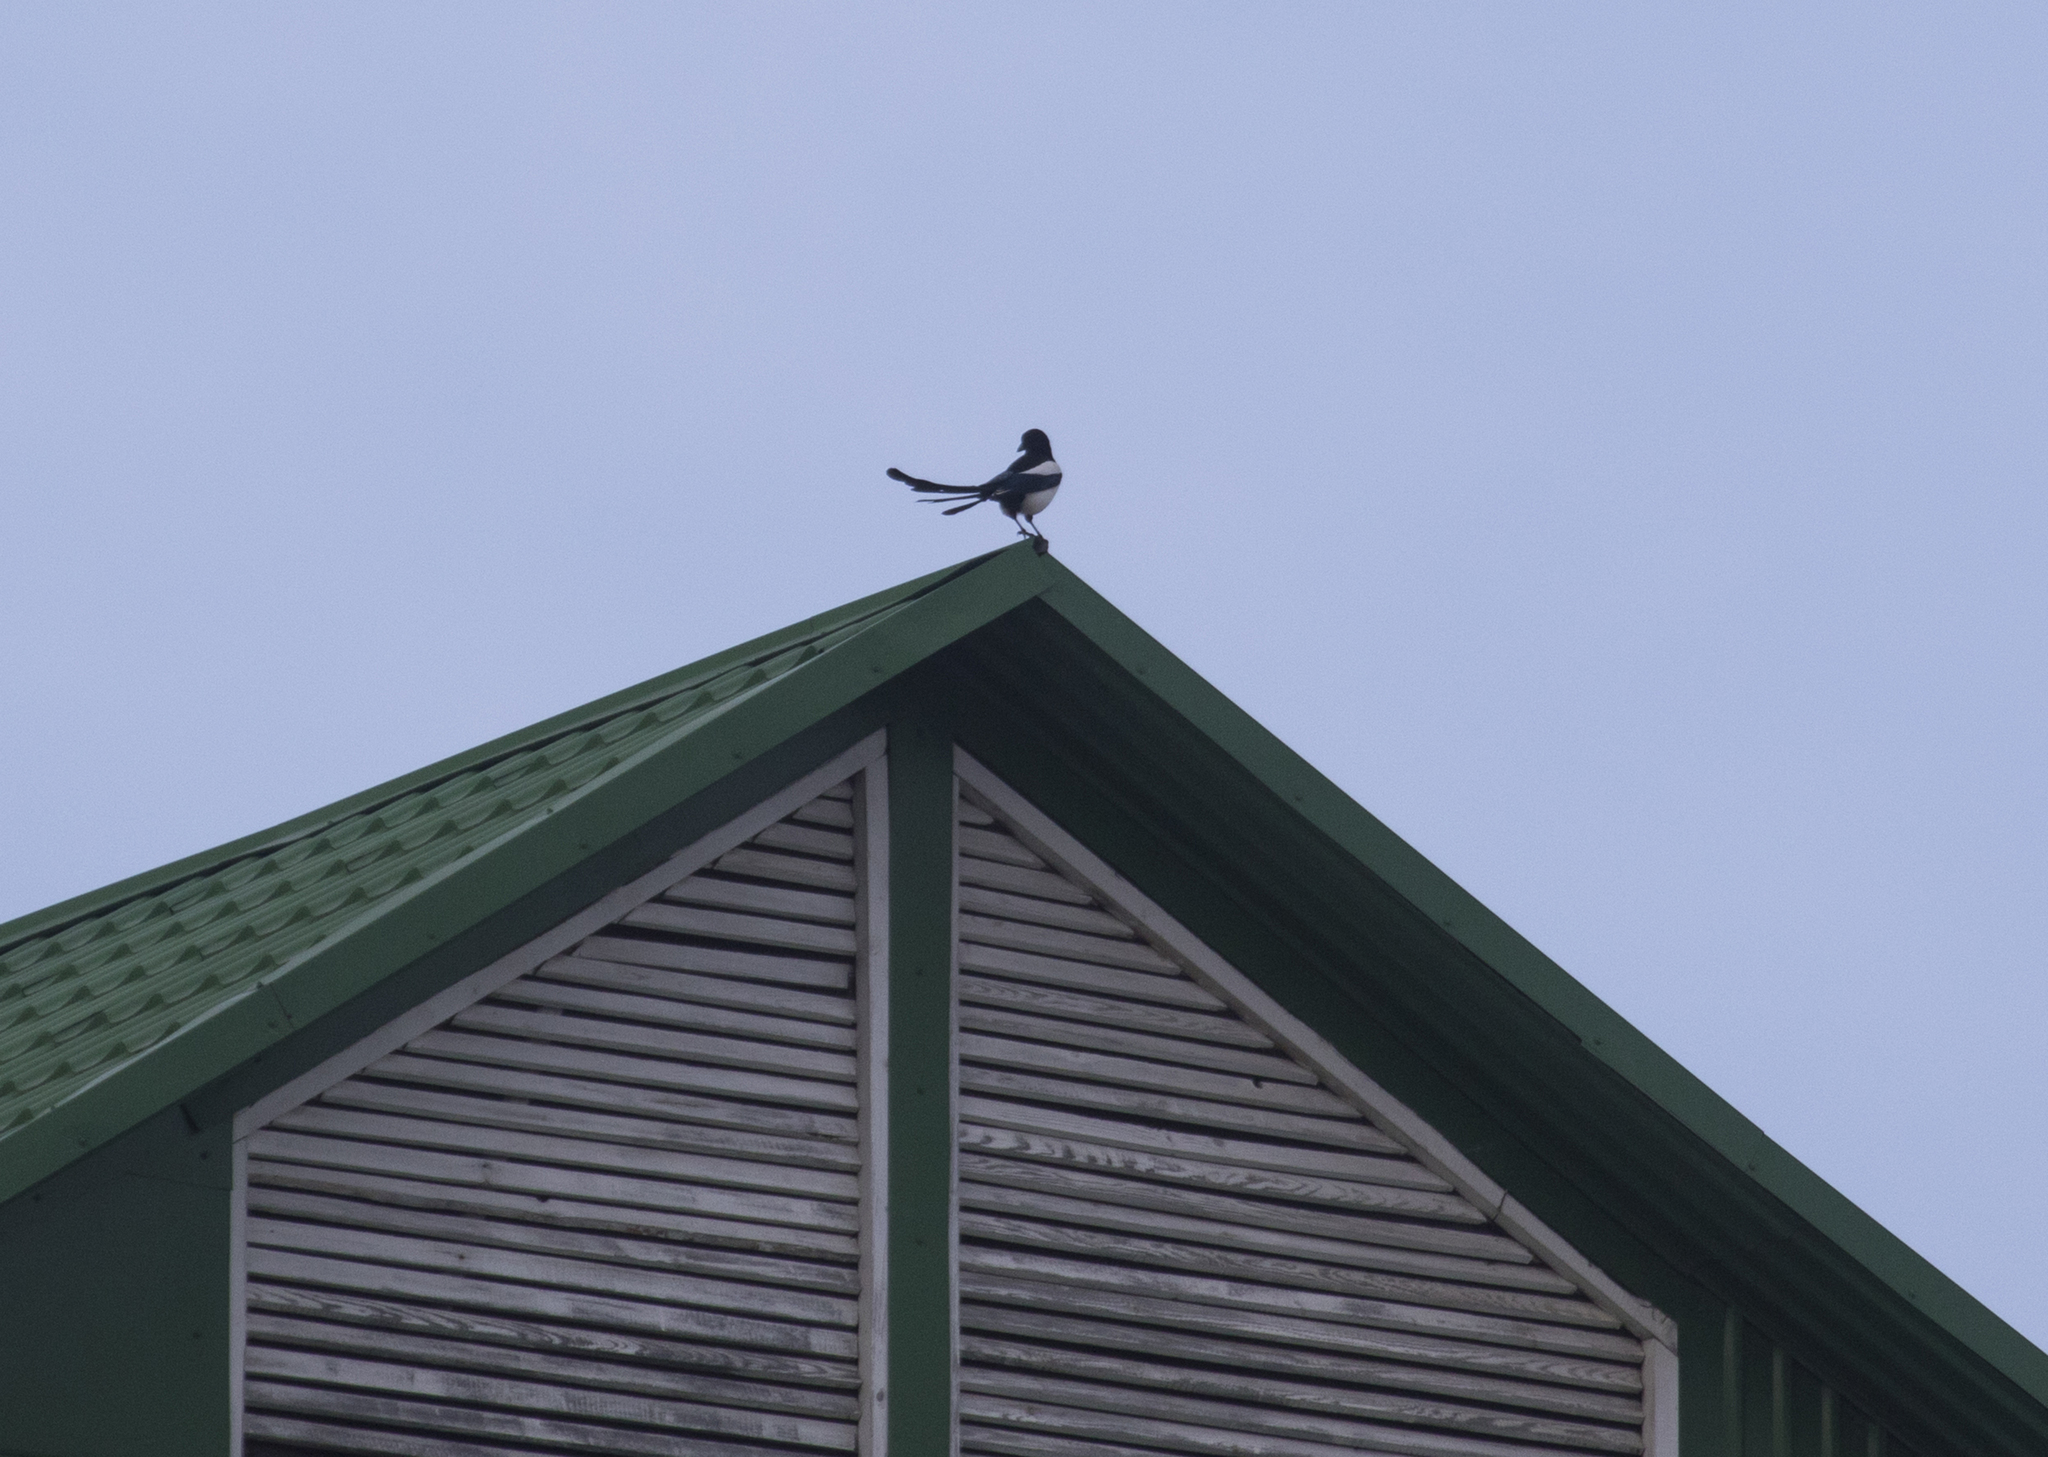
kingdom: Animalia
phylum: Chordata
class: Aves
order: Passeriformes
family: Corvidae
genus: Pica
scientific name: Pica pica
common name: Eurasian magpie
